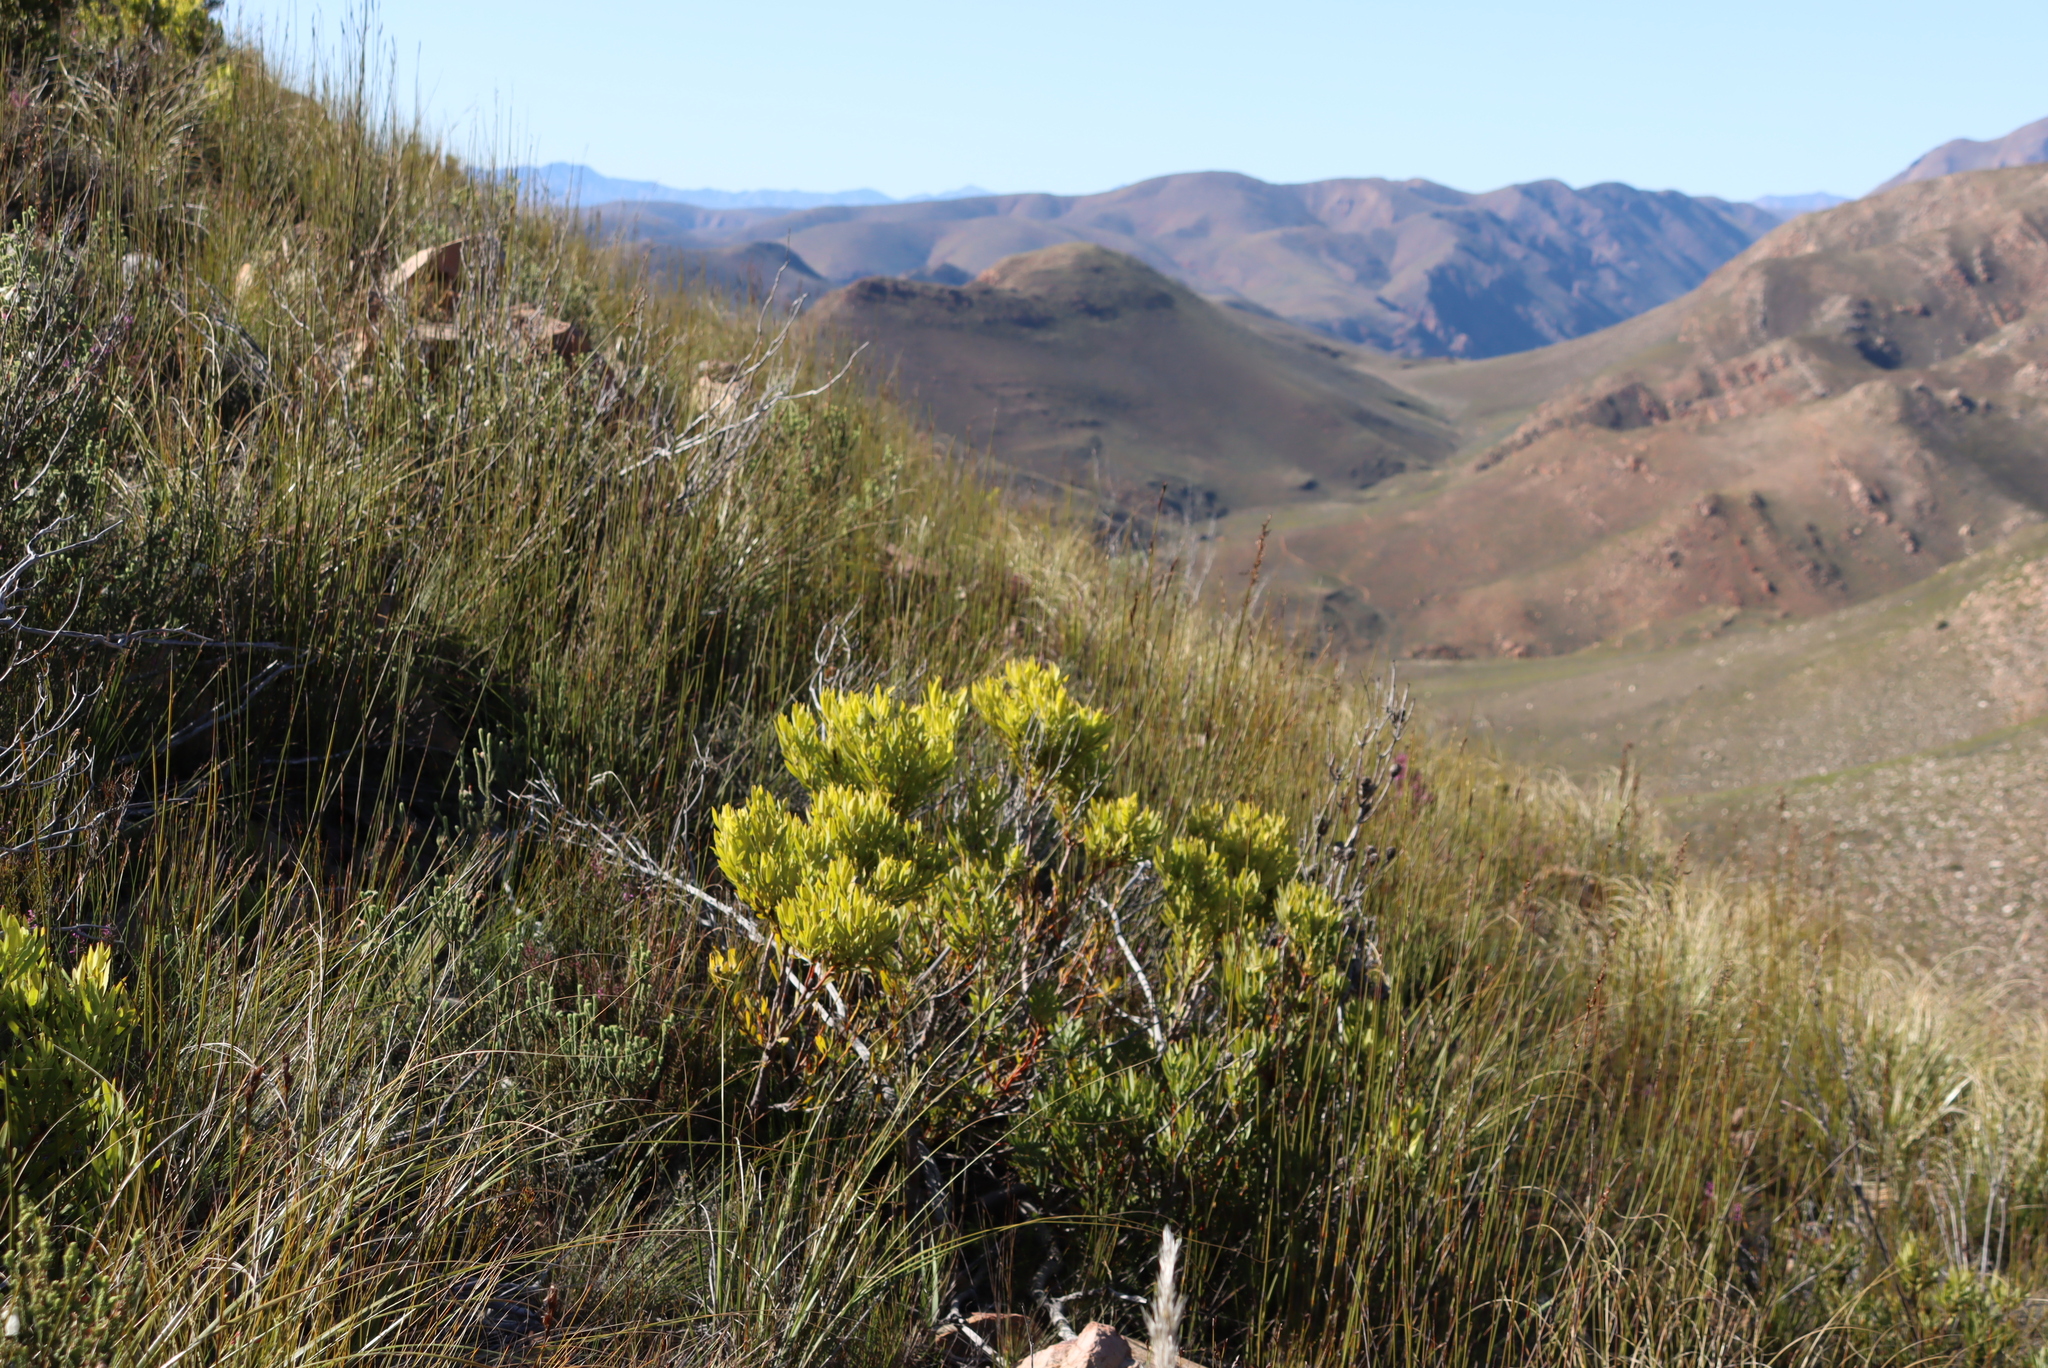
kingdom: Plantae
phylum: Tracheophyta
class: Magnoliopsida
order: Proteales
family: Proteaceae
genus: Leucadendron
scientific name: Leucadendron salignum
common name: Common sunshine conebush
